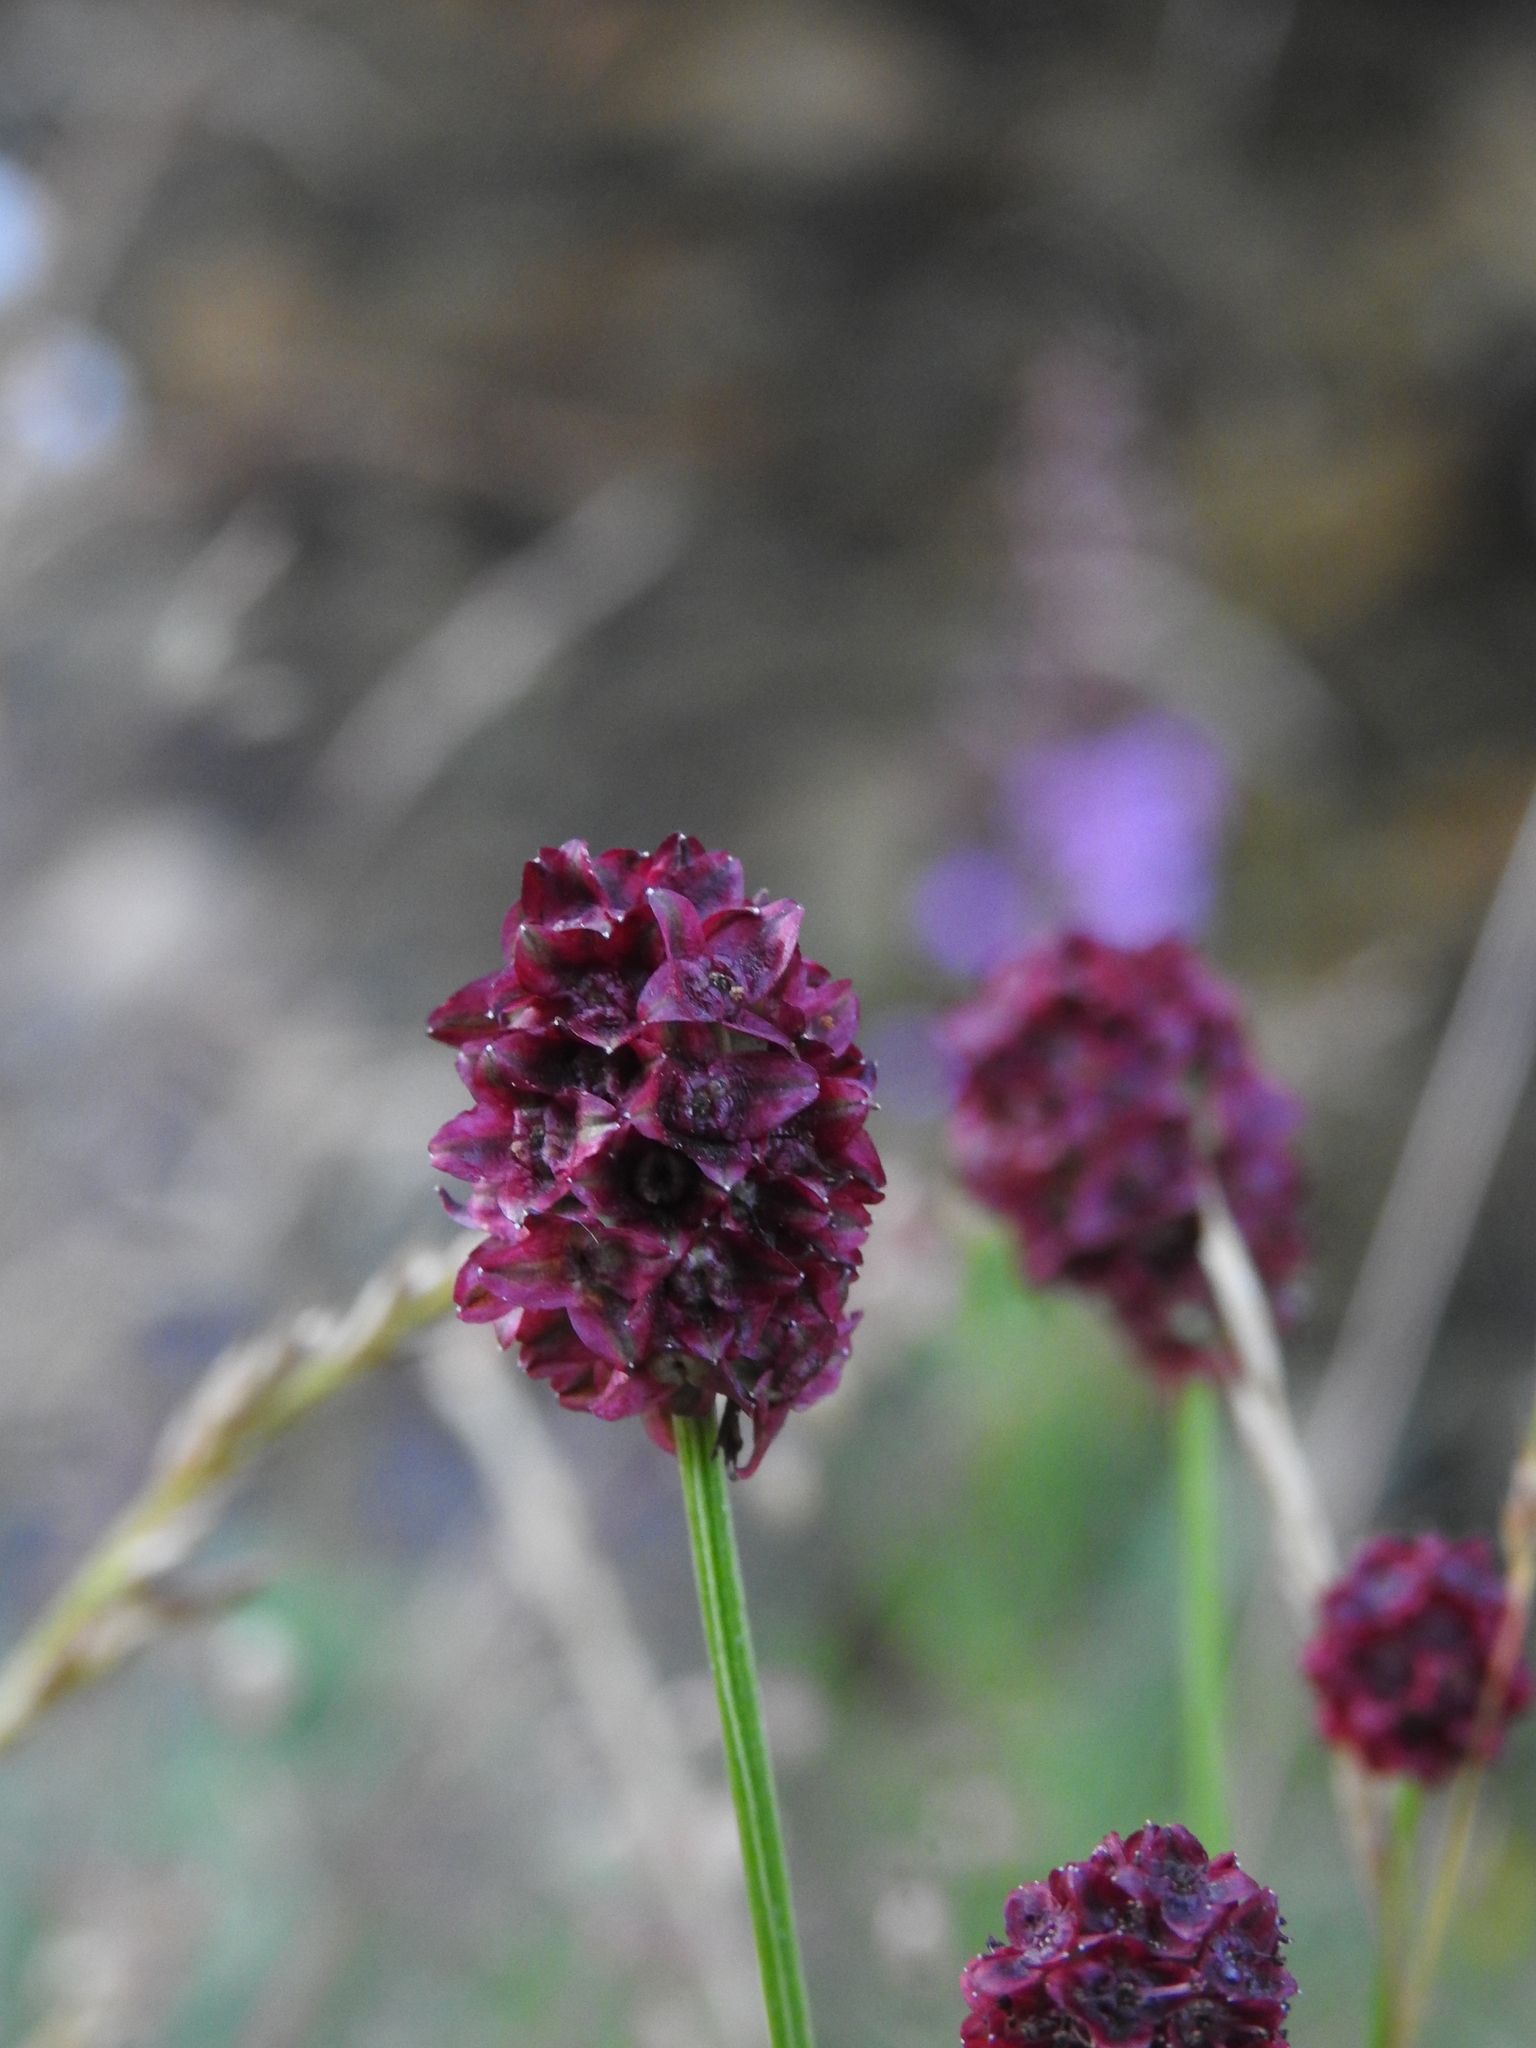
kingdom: Plantae
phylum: Tracheophyta
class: Magnoliopsida
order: Rosales
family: Rosaceae
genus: Sanguisorba
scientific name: Sanguisorba officinalis
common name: Great burnet
